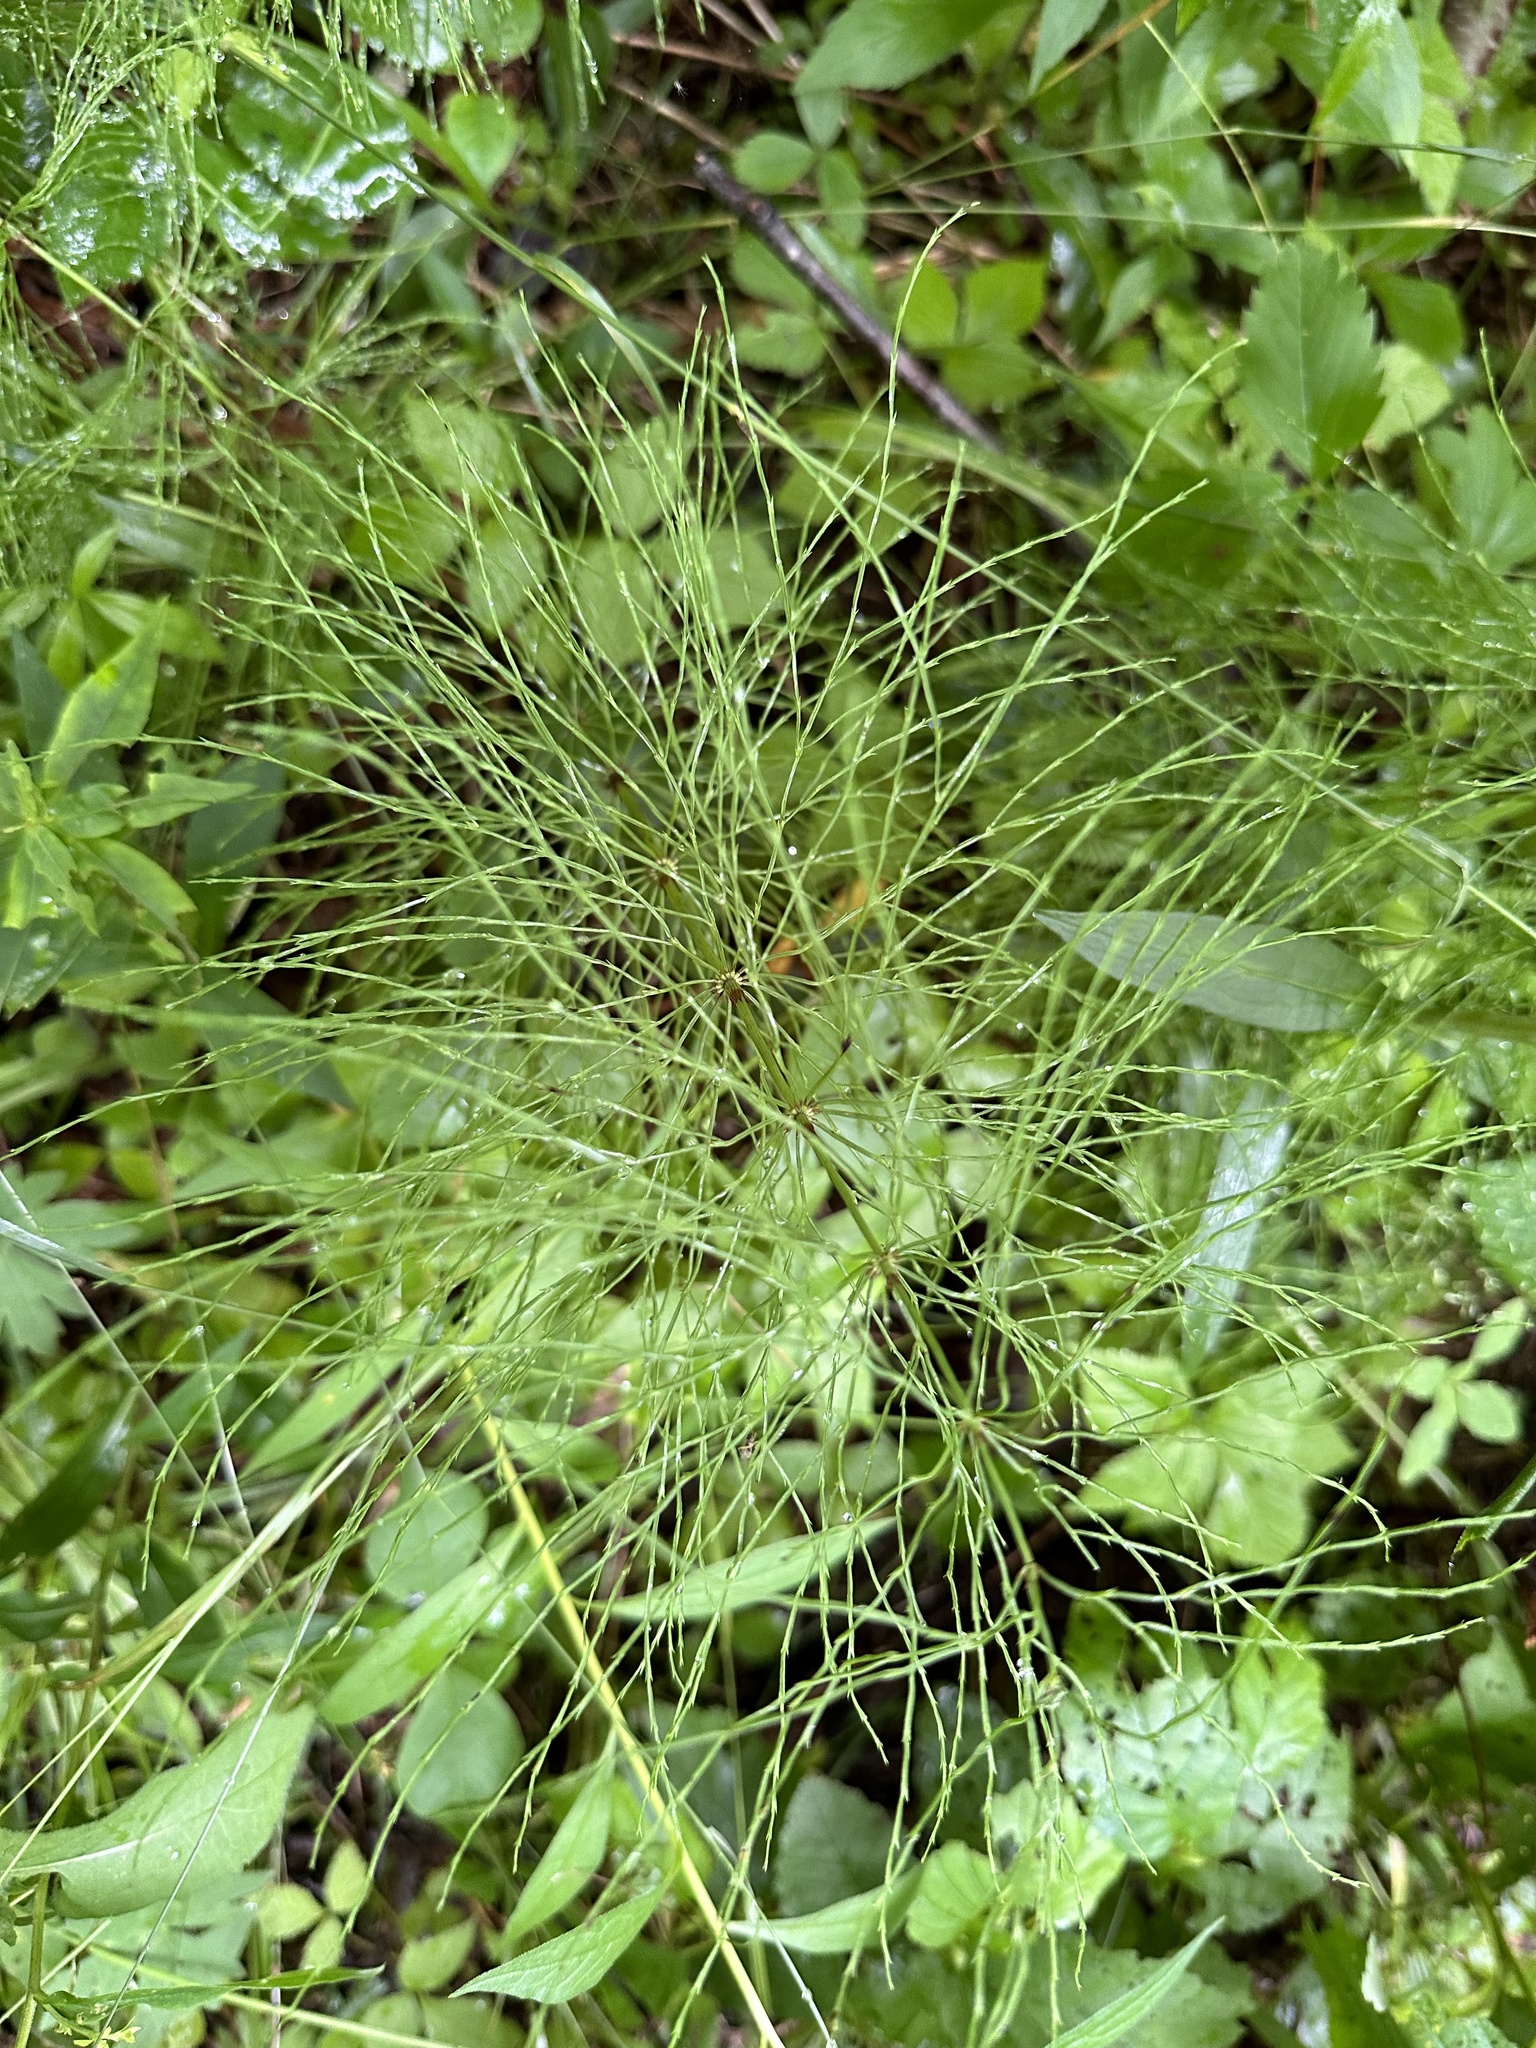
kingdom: Plantae
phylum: Tracheophyta
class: Polypodiopsida
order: Equisetales
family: Equisetaceae
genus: Equisetum
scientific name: Equisetum sylvaticum
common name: Wood horsetail
